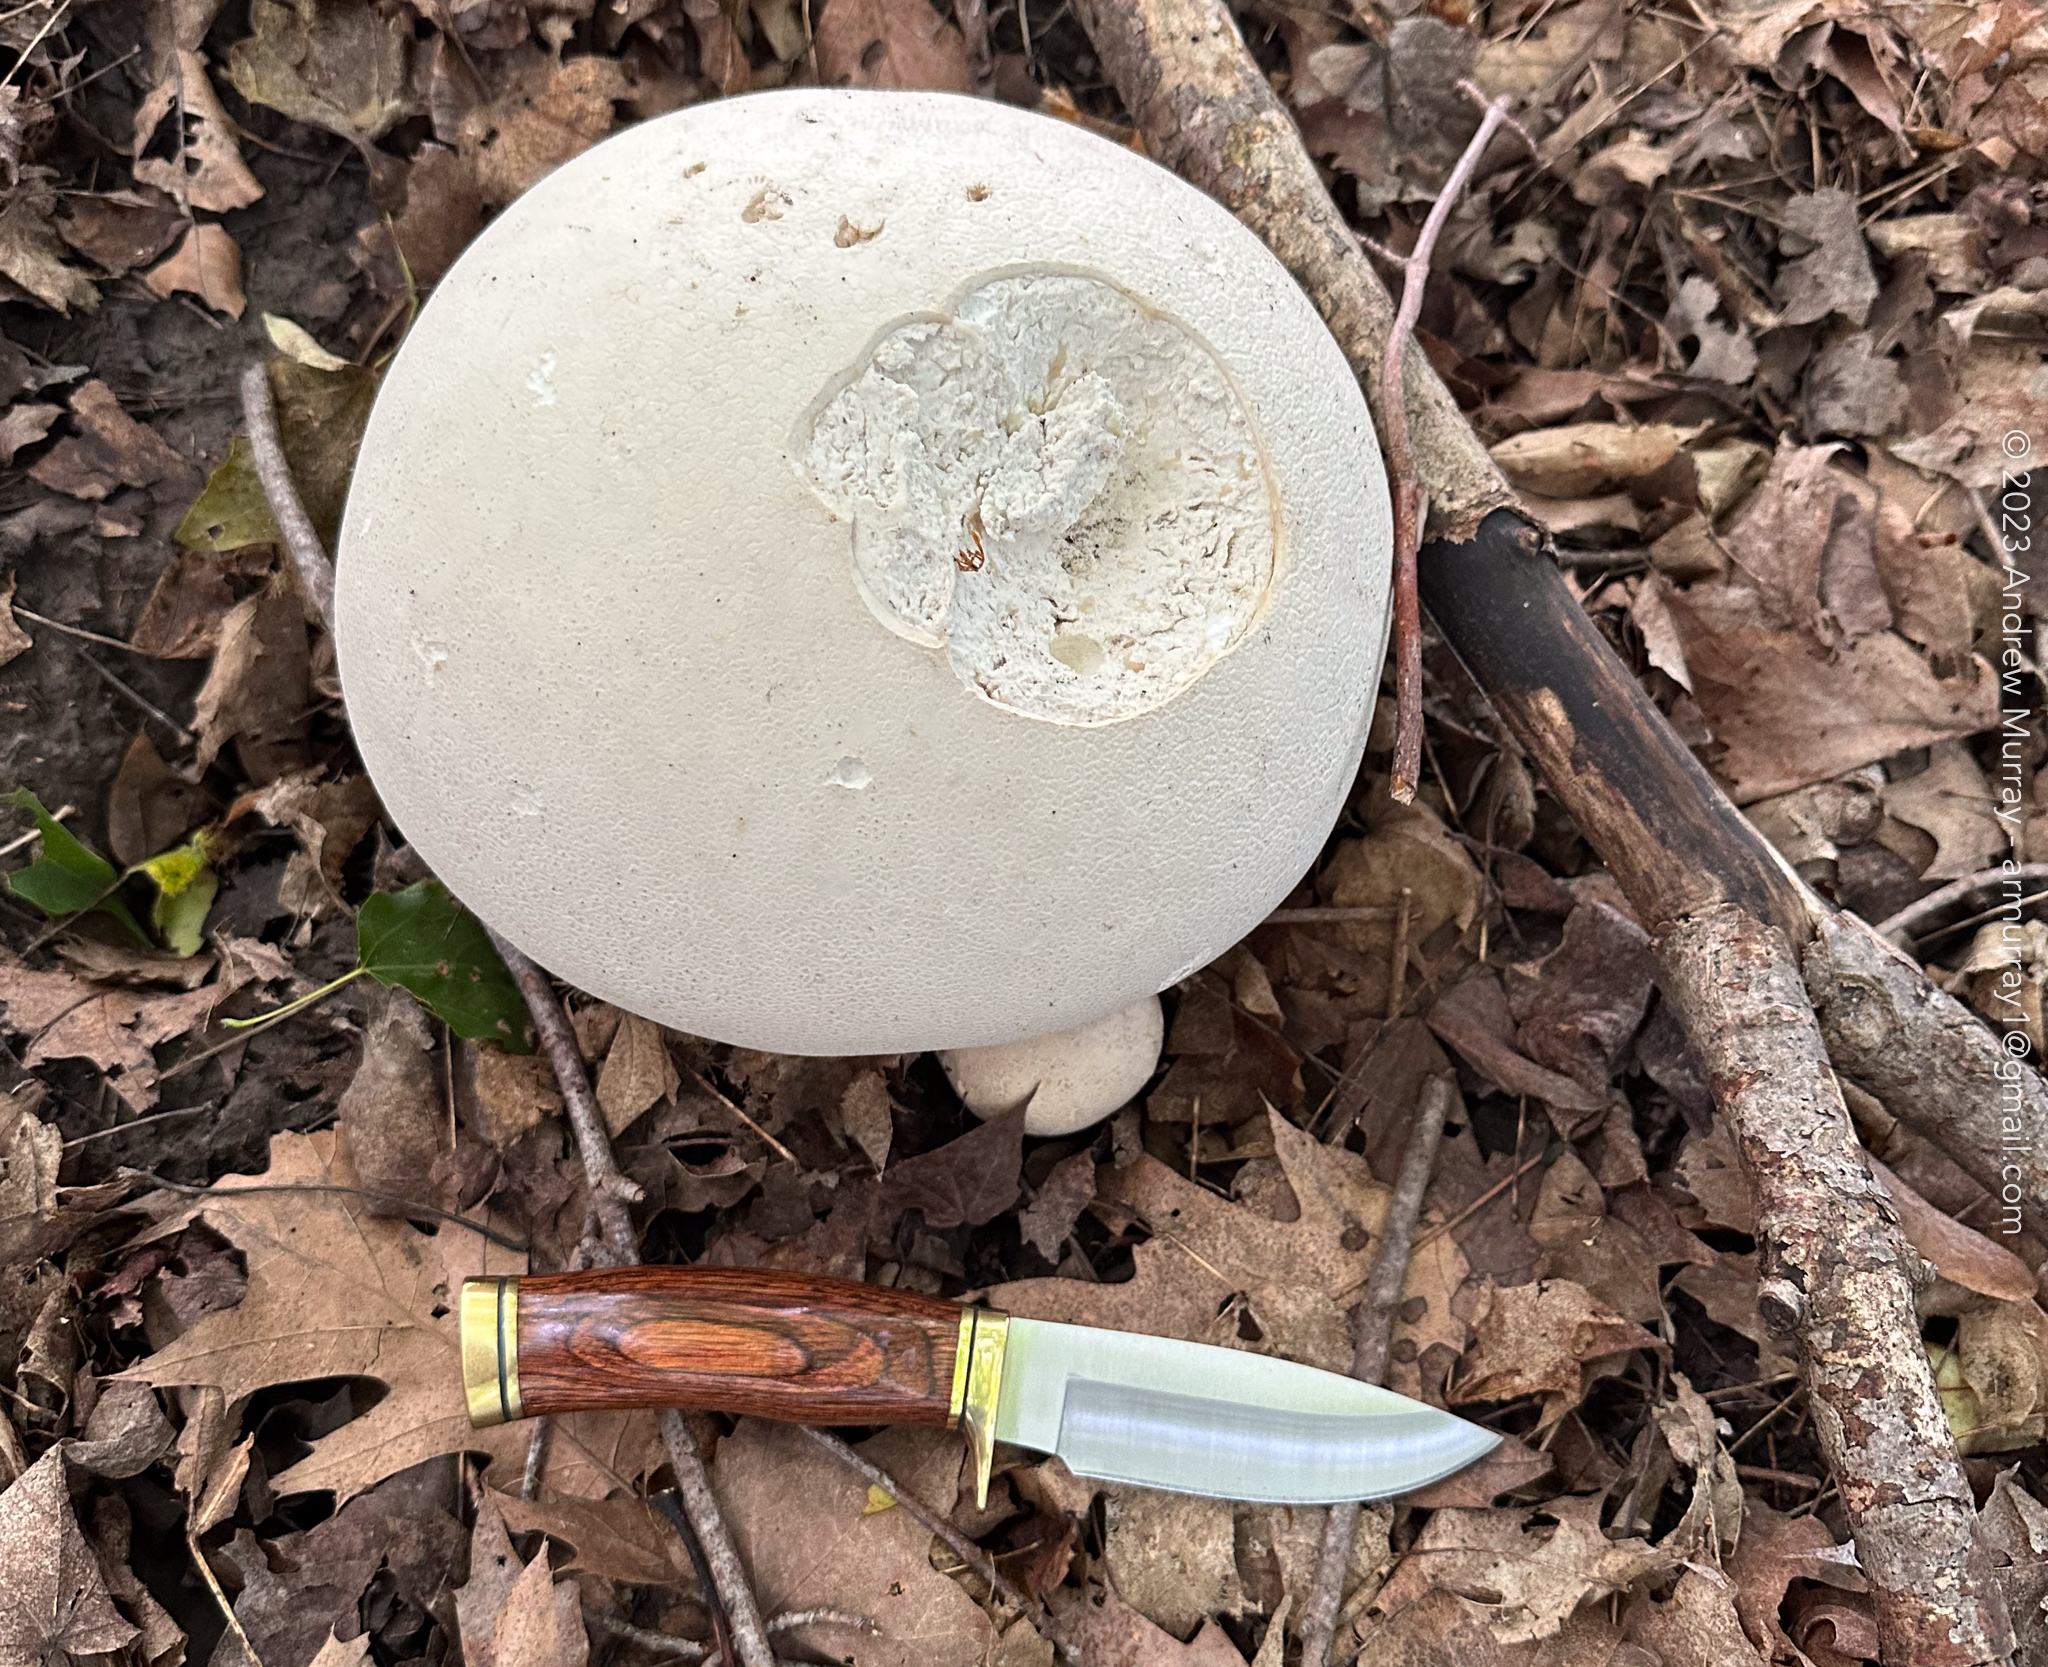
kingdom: Fungi
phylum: Basidiomycota
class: Agaricomycetes
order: Agaricales
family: Lycoperdaceae
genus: Calvatia
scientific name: Calvatia gigantea
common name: Giant puffball
